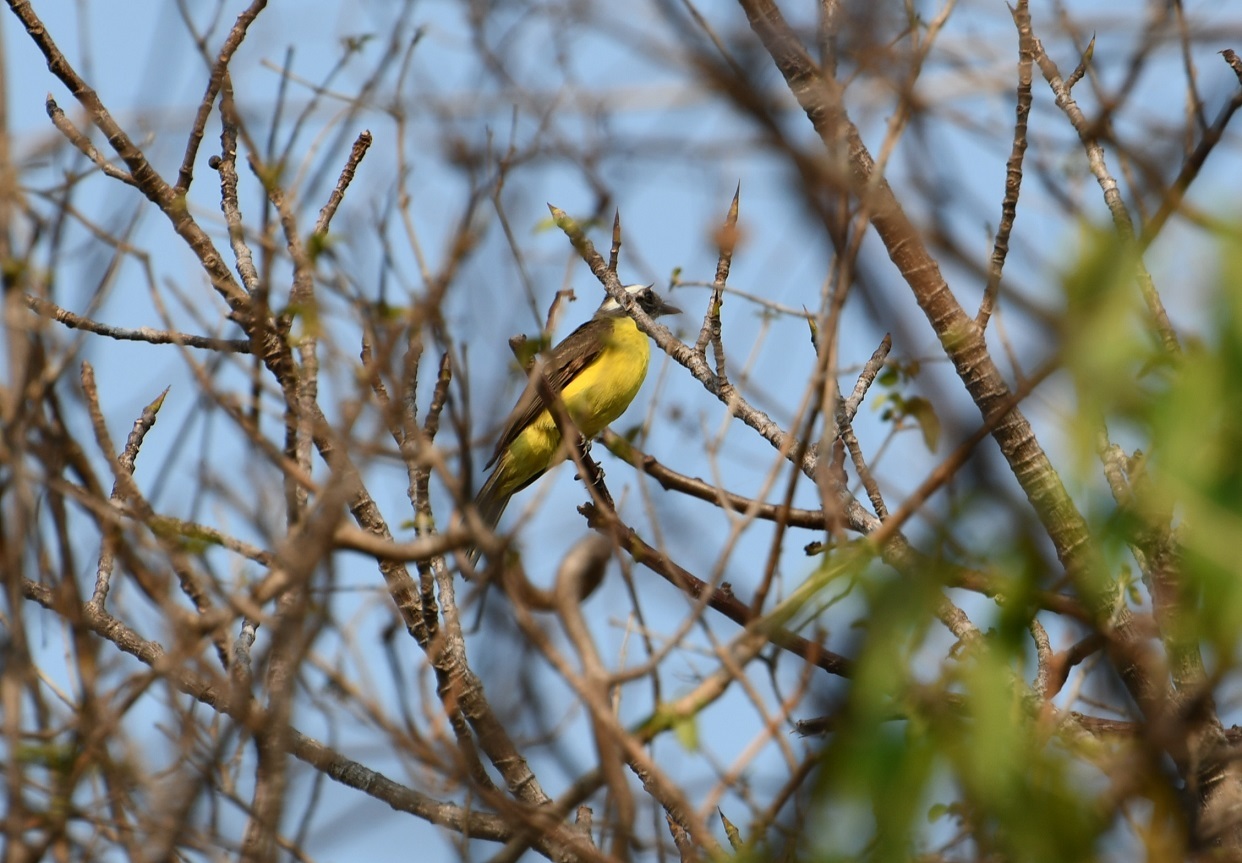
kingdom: Animalia
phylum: Chordata
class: Aves
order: Passeriformes
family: Tyrannidae
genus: Myiozetetes
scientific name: Myiozetetes similis
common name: Social flycatcher
